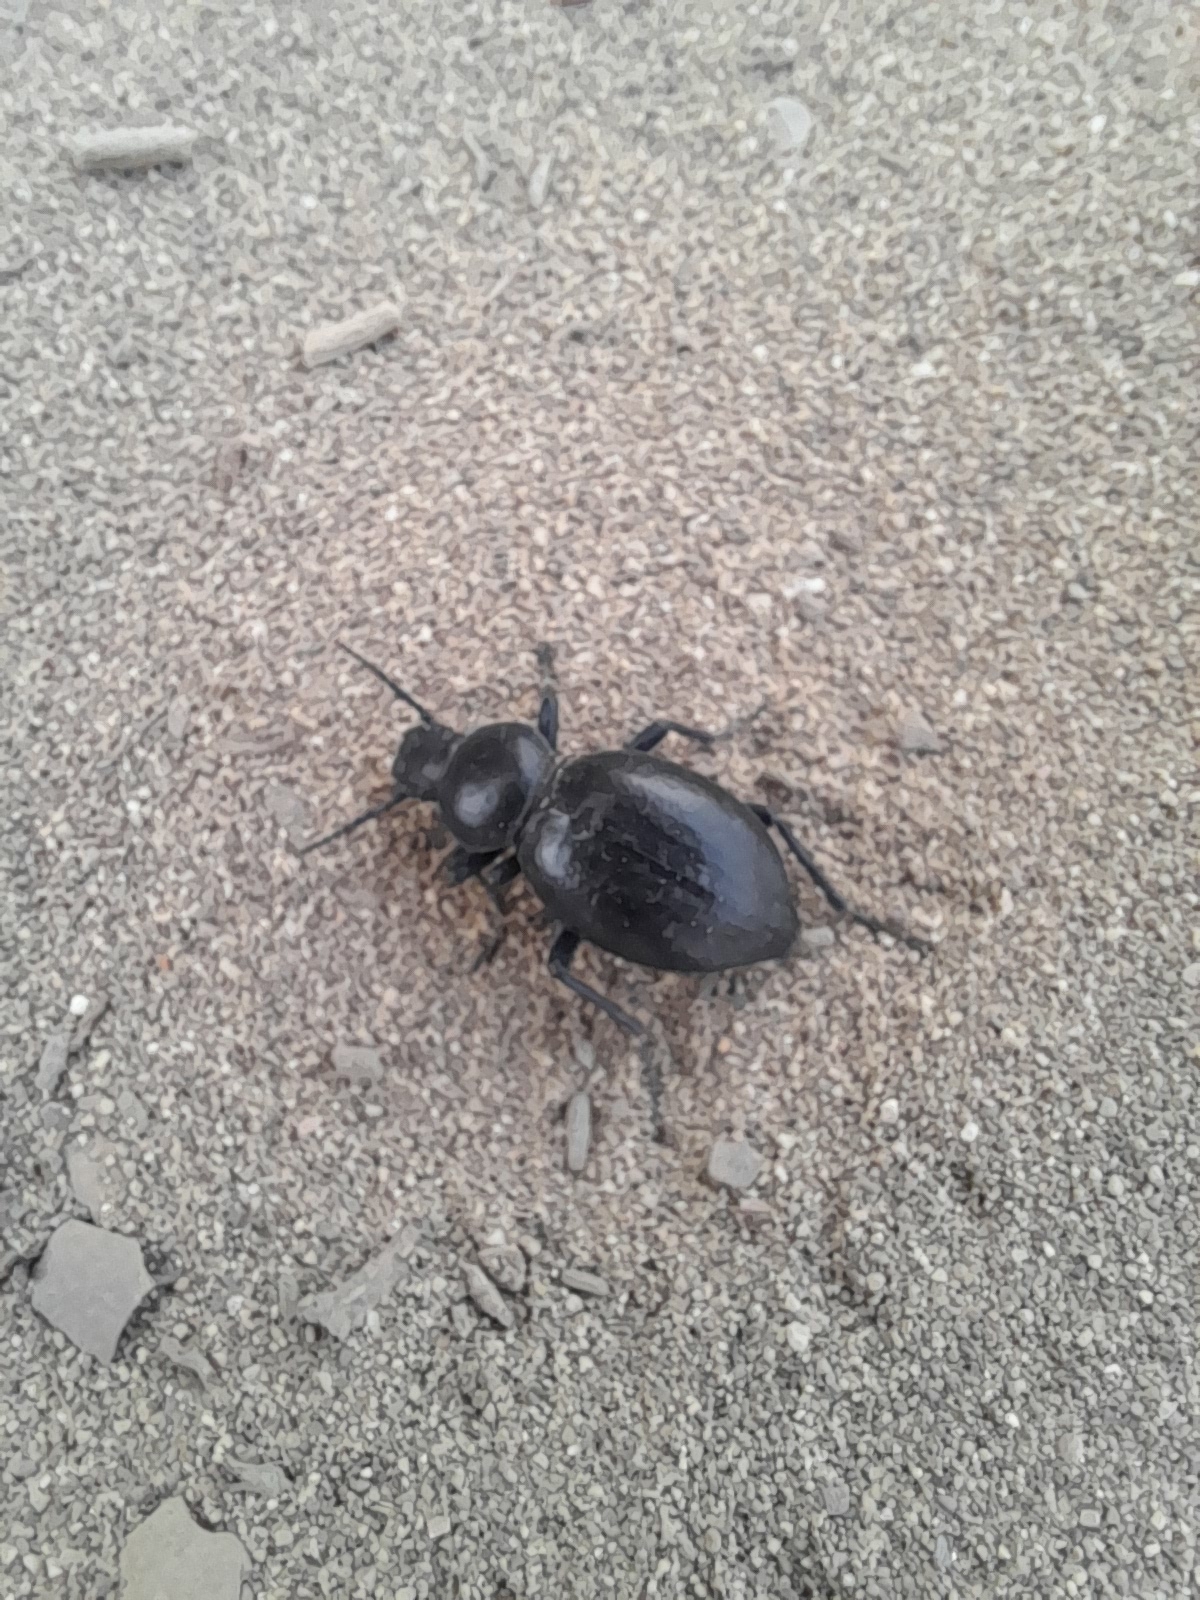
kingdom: Animalia
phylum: Arthropoda
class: Insecta
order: Coleoptera
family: Tenebrionidae
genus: Tentyria
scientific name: Tentyria grossa
